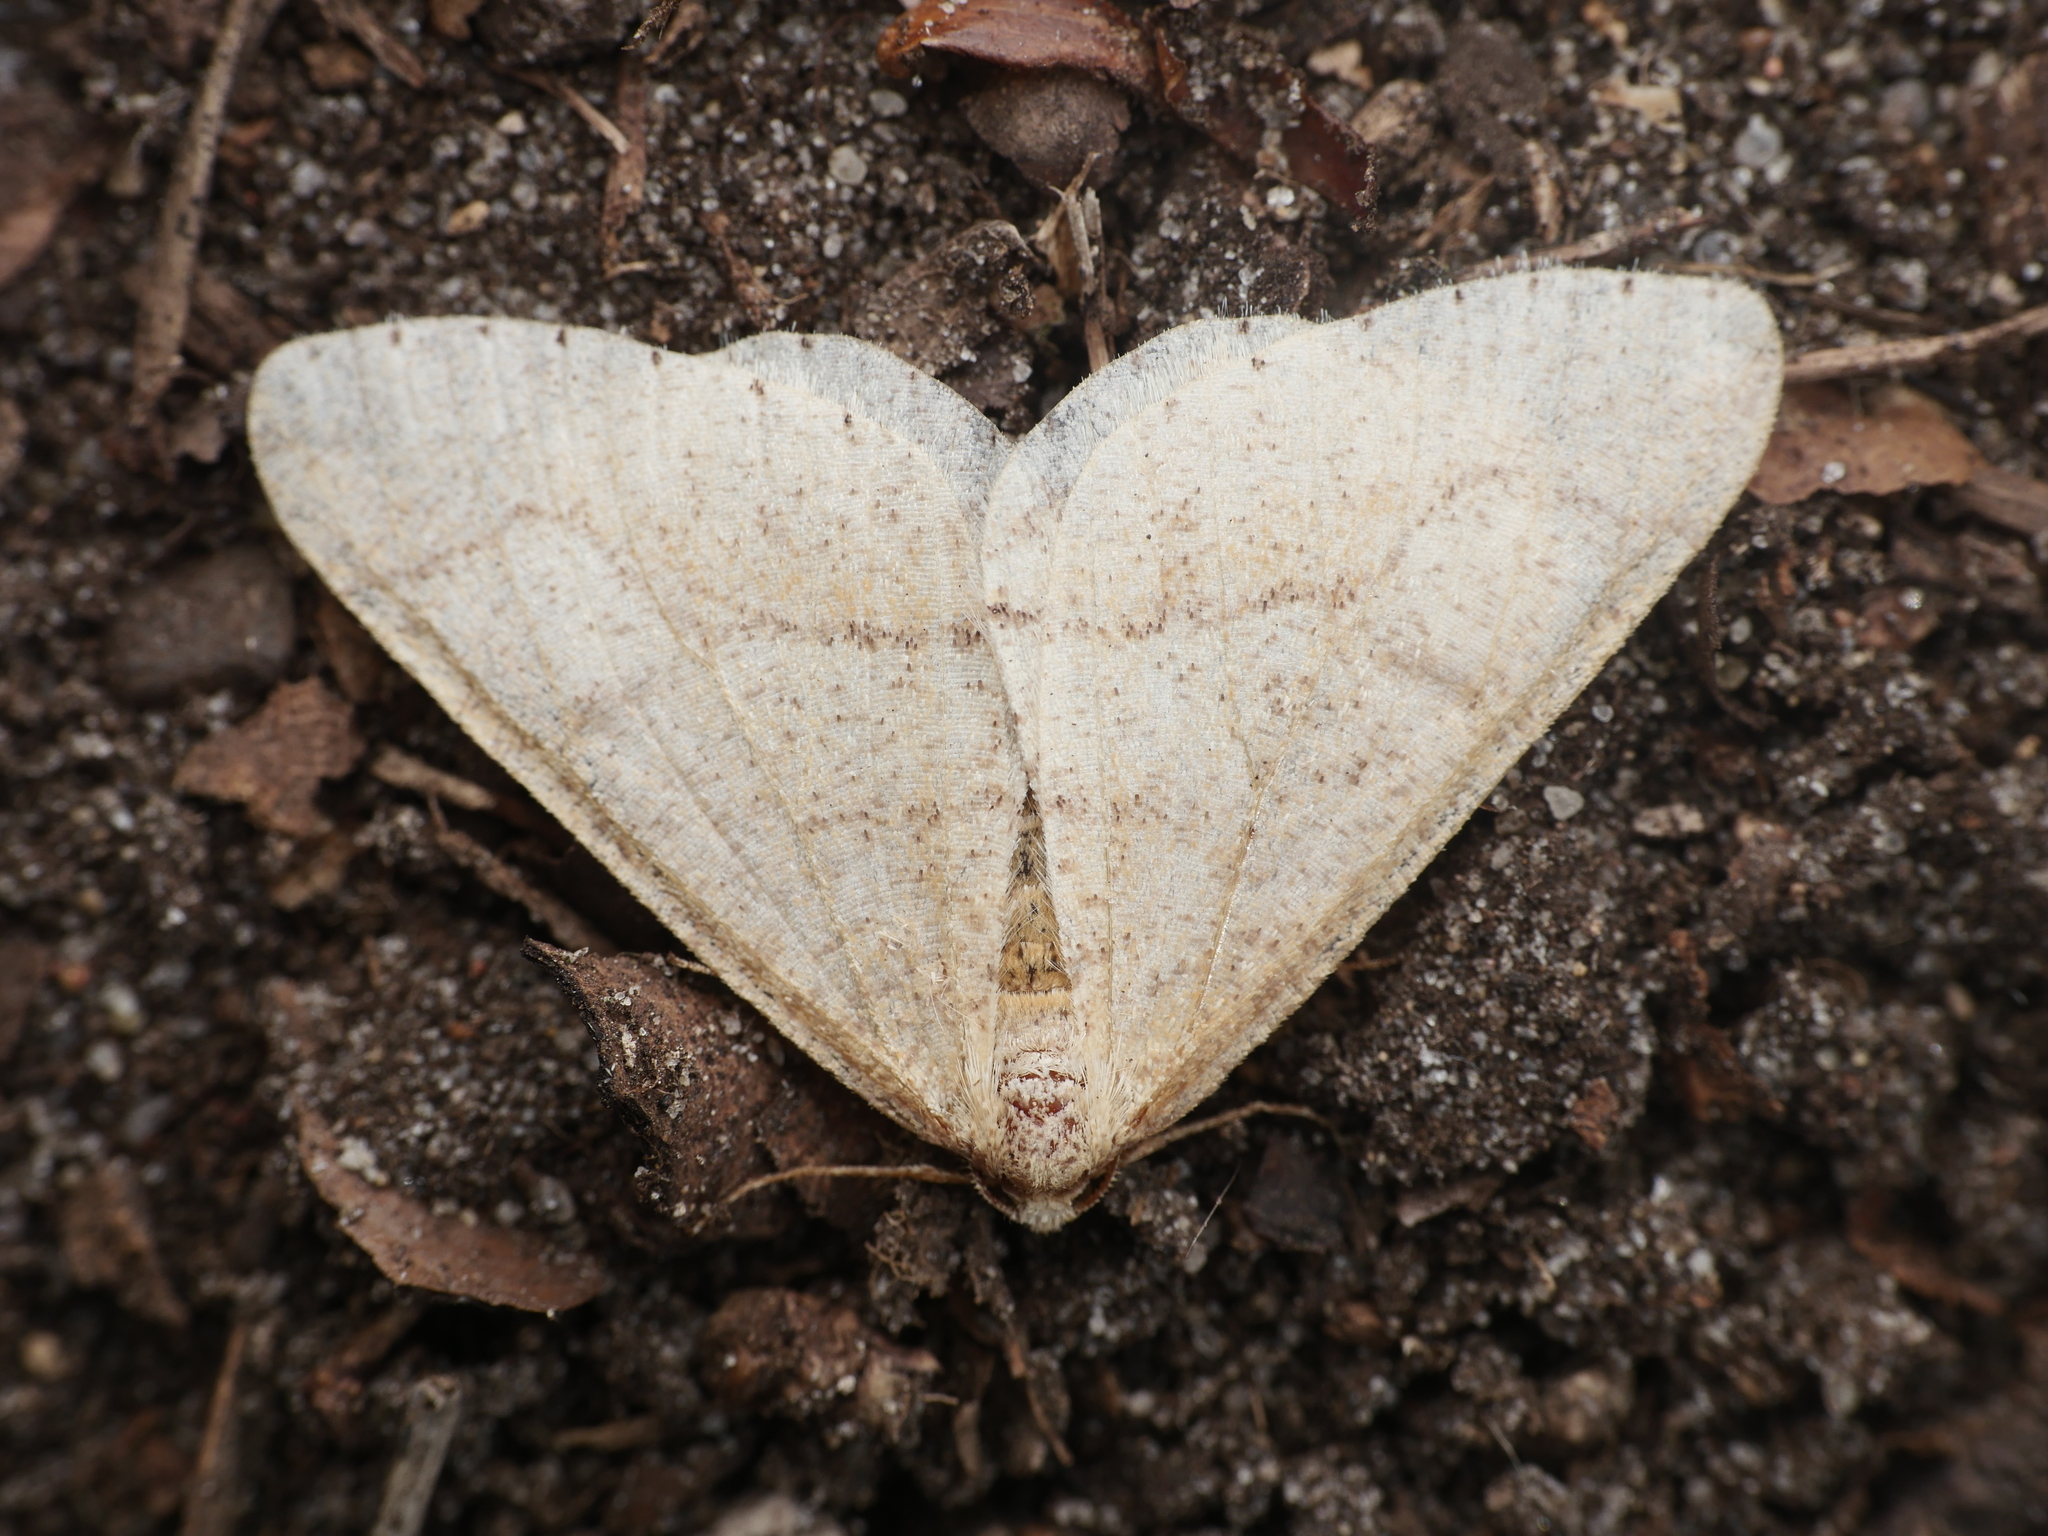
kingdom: Animalia
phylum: Arthropoda
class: Insecta
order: Lepidoptera
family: Geometridae
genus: Agriopis
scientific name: Agriopis marginaria
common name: Dotted border
